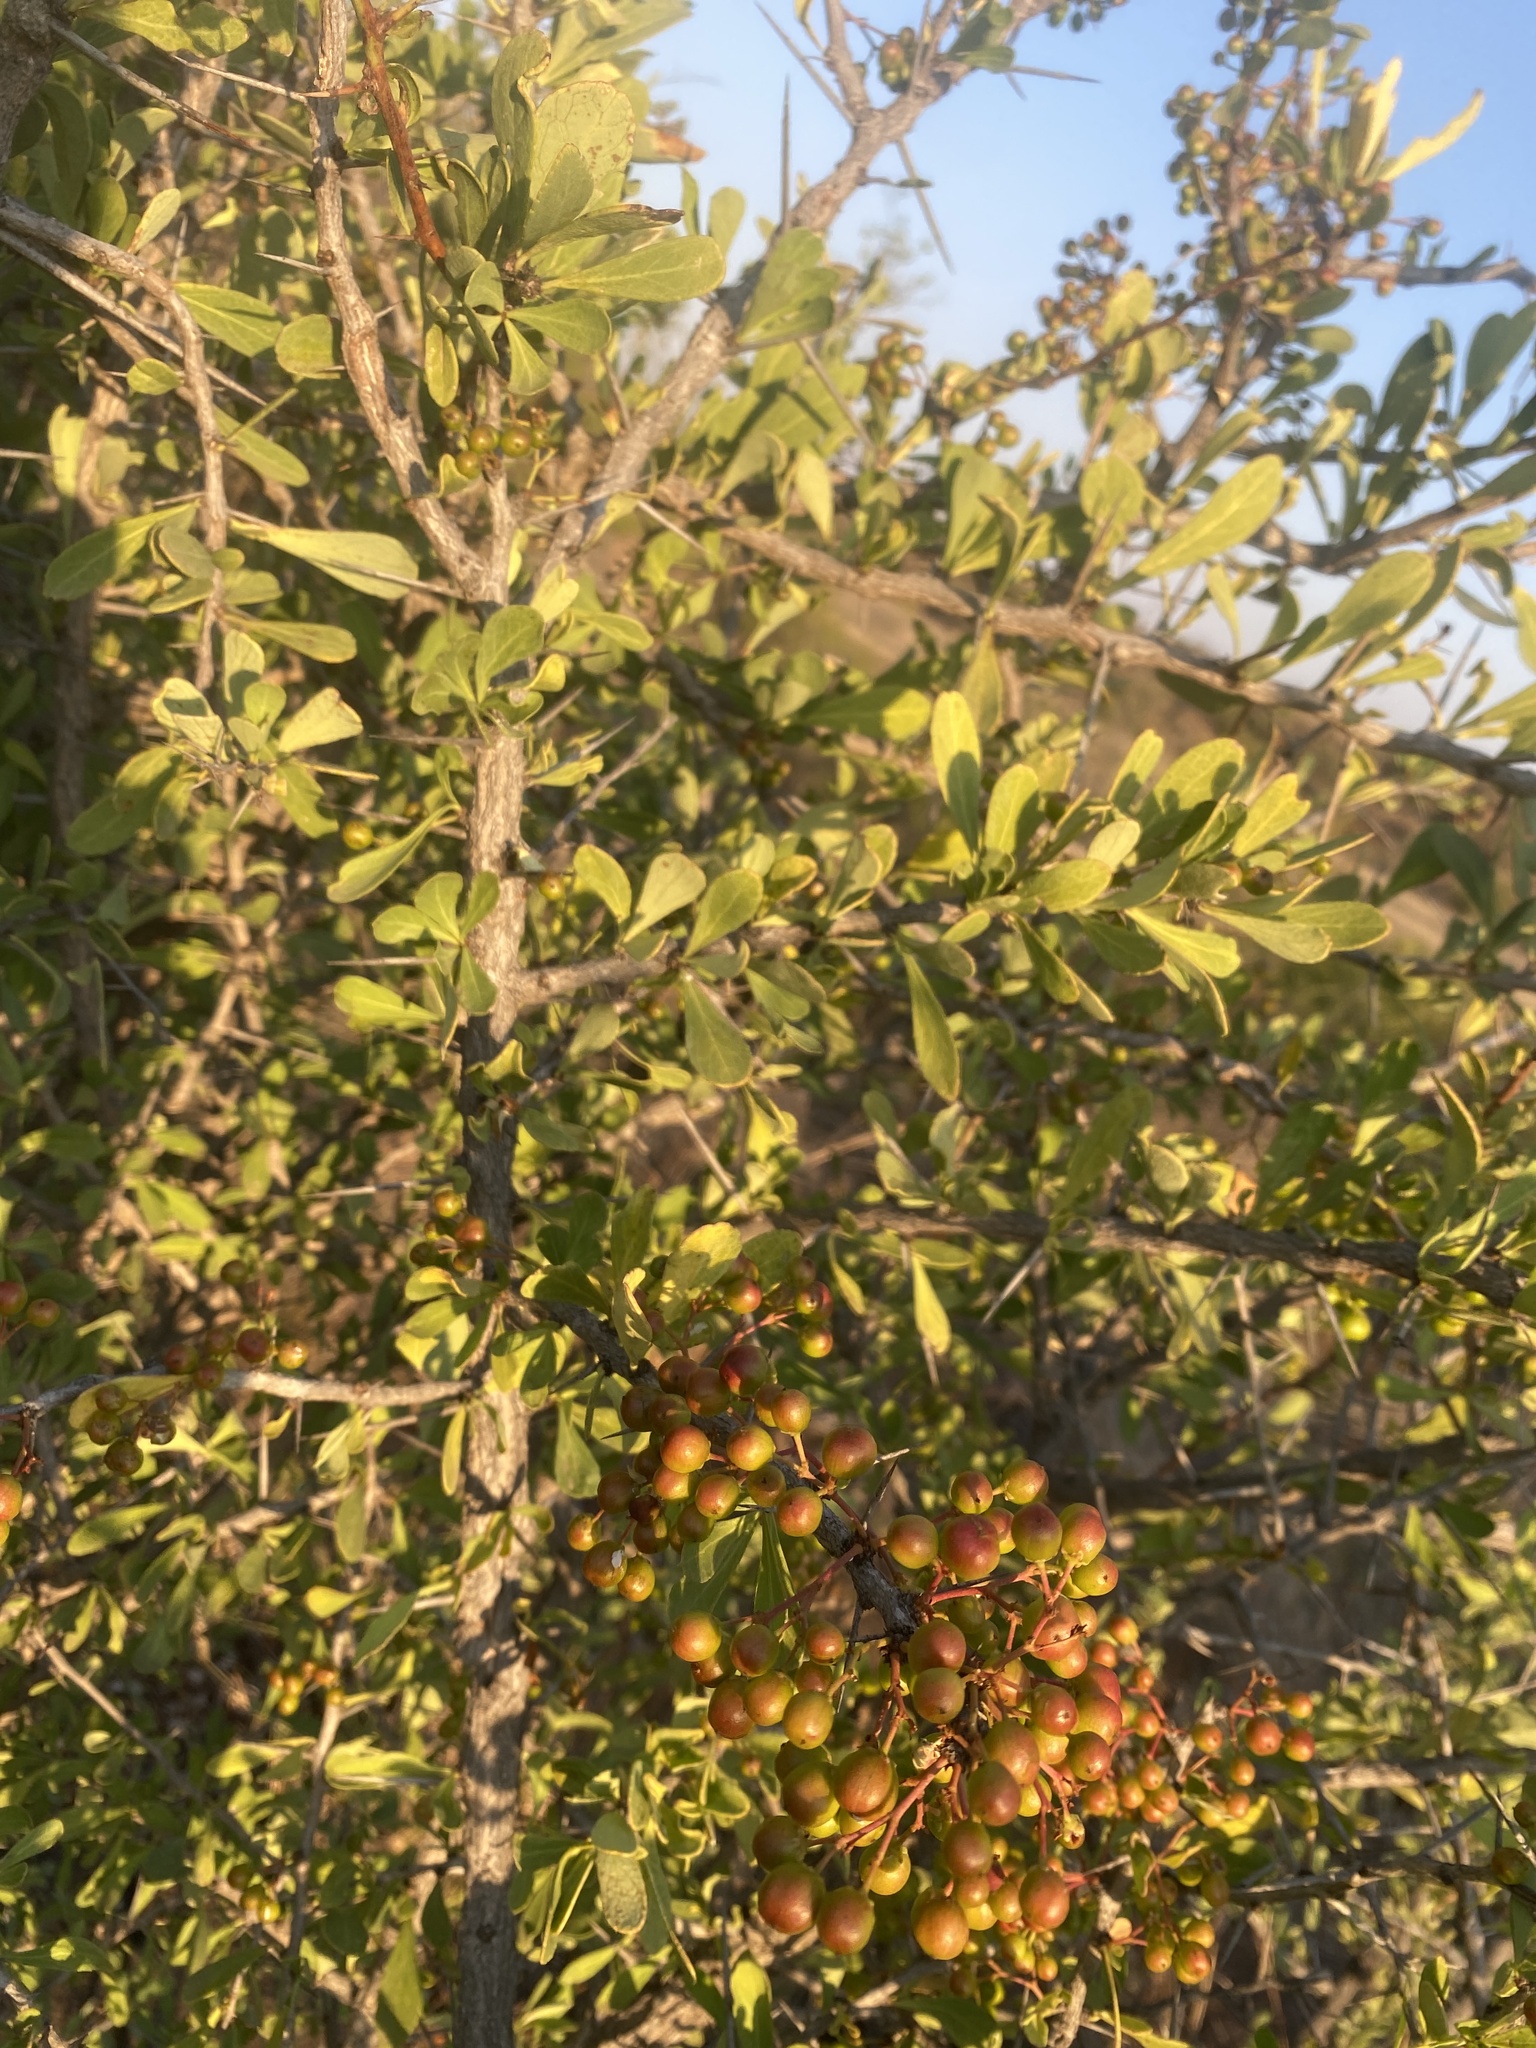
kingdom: Plantae
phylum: Tracheophyta
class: Magnoliopsida
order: Celastrales
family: Celastraceae
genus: Gymnosporia
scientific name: Gymnosporia buxifolia
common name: Common spike-thorn
